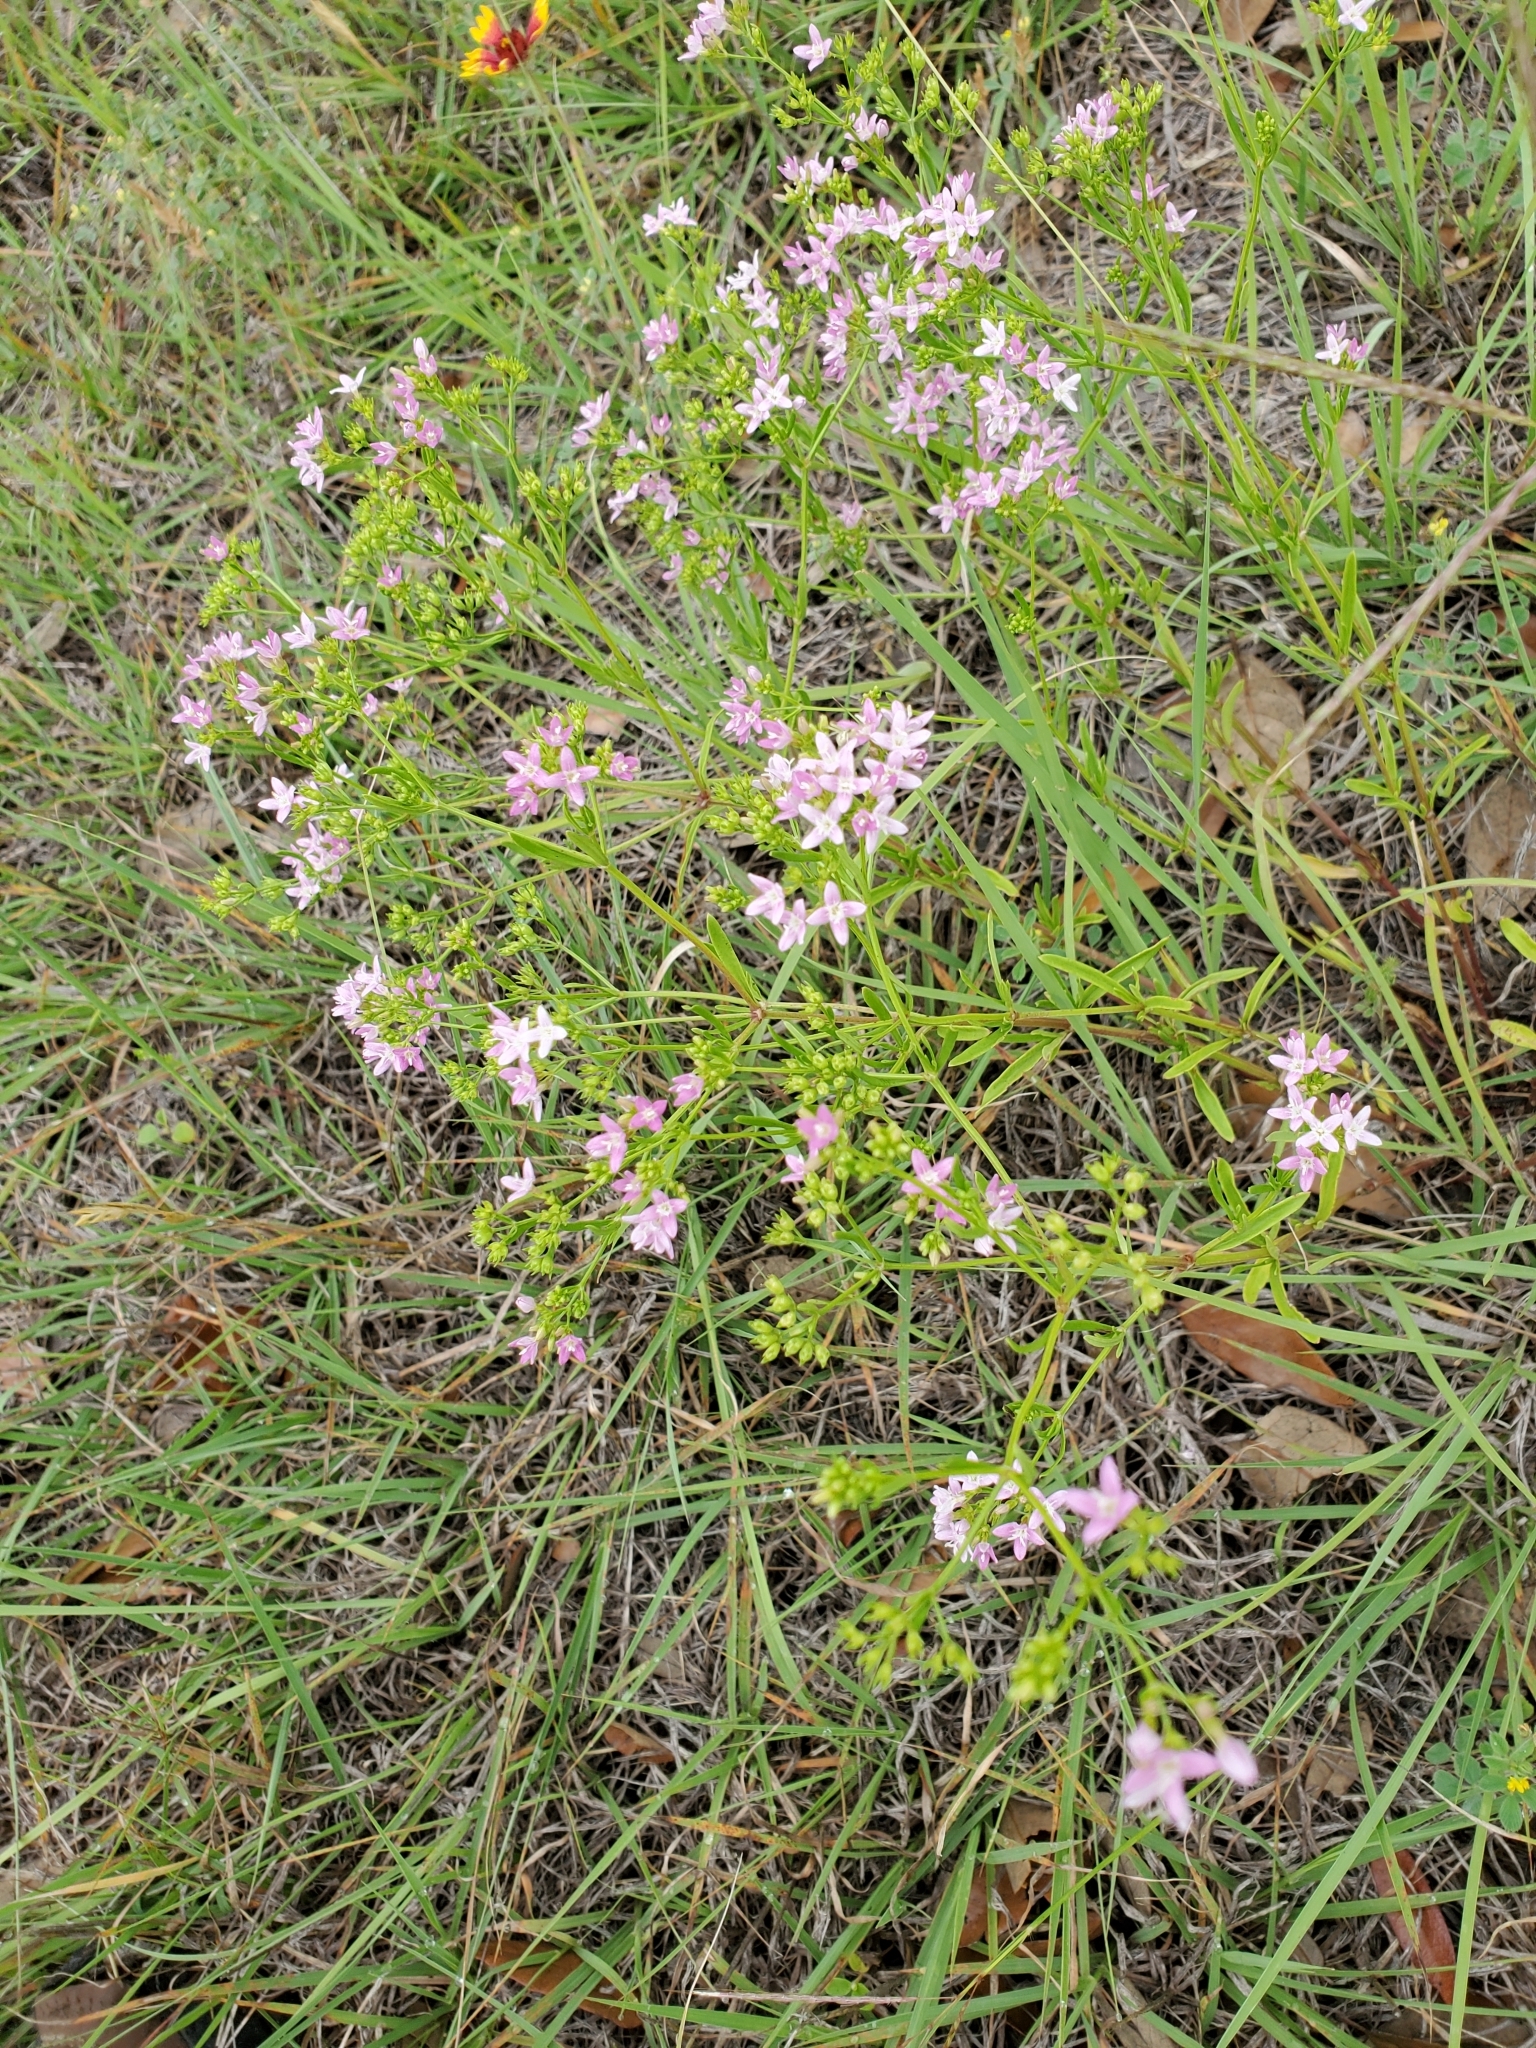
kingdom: Plantae
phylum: Tracheophyta
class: Magnoliopsida
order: Gentianales
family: Rubiaceae
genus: Stenaria
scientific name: Stenaria nigricans
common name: Diamondflowers
